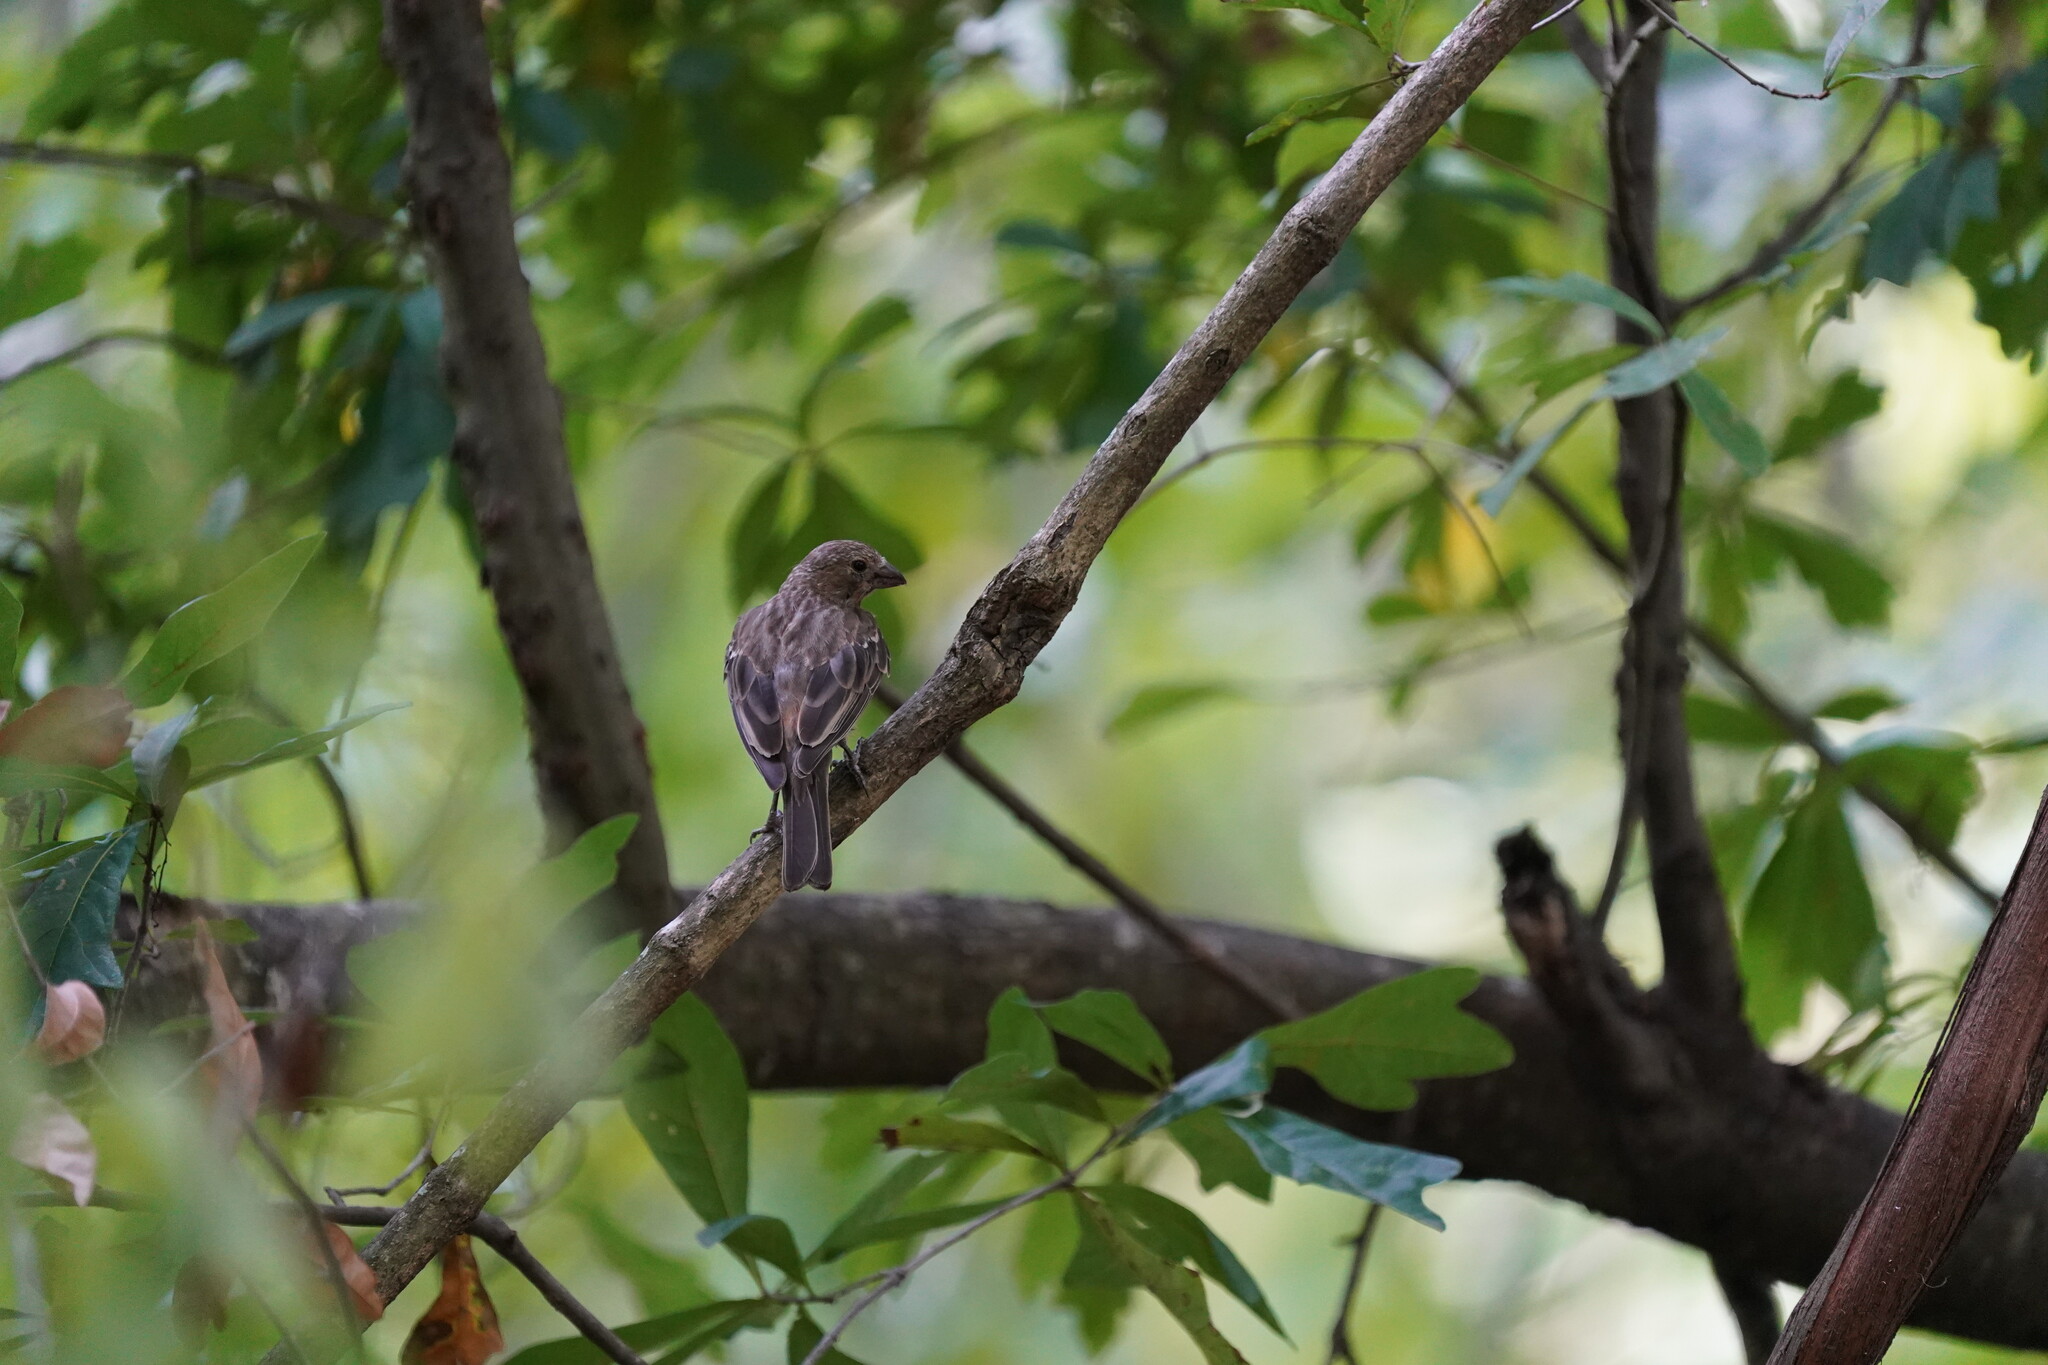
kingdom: Animalia
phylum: Chordata
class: Aves
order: Passeriformes
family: Fringillidae
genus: Haemorhous
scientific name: Haemorhous mexicanus
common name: House finch
